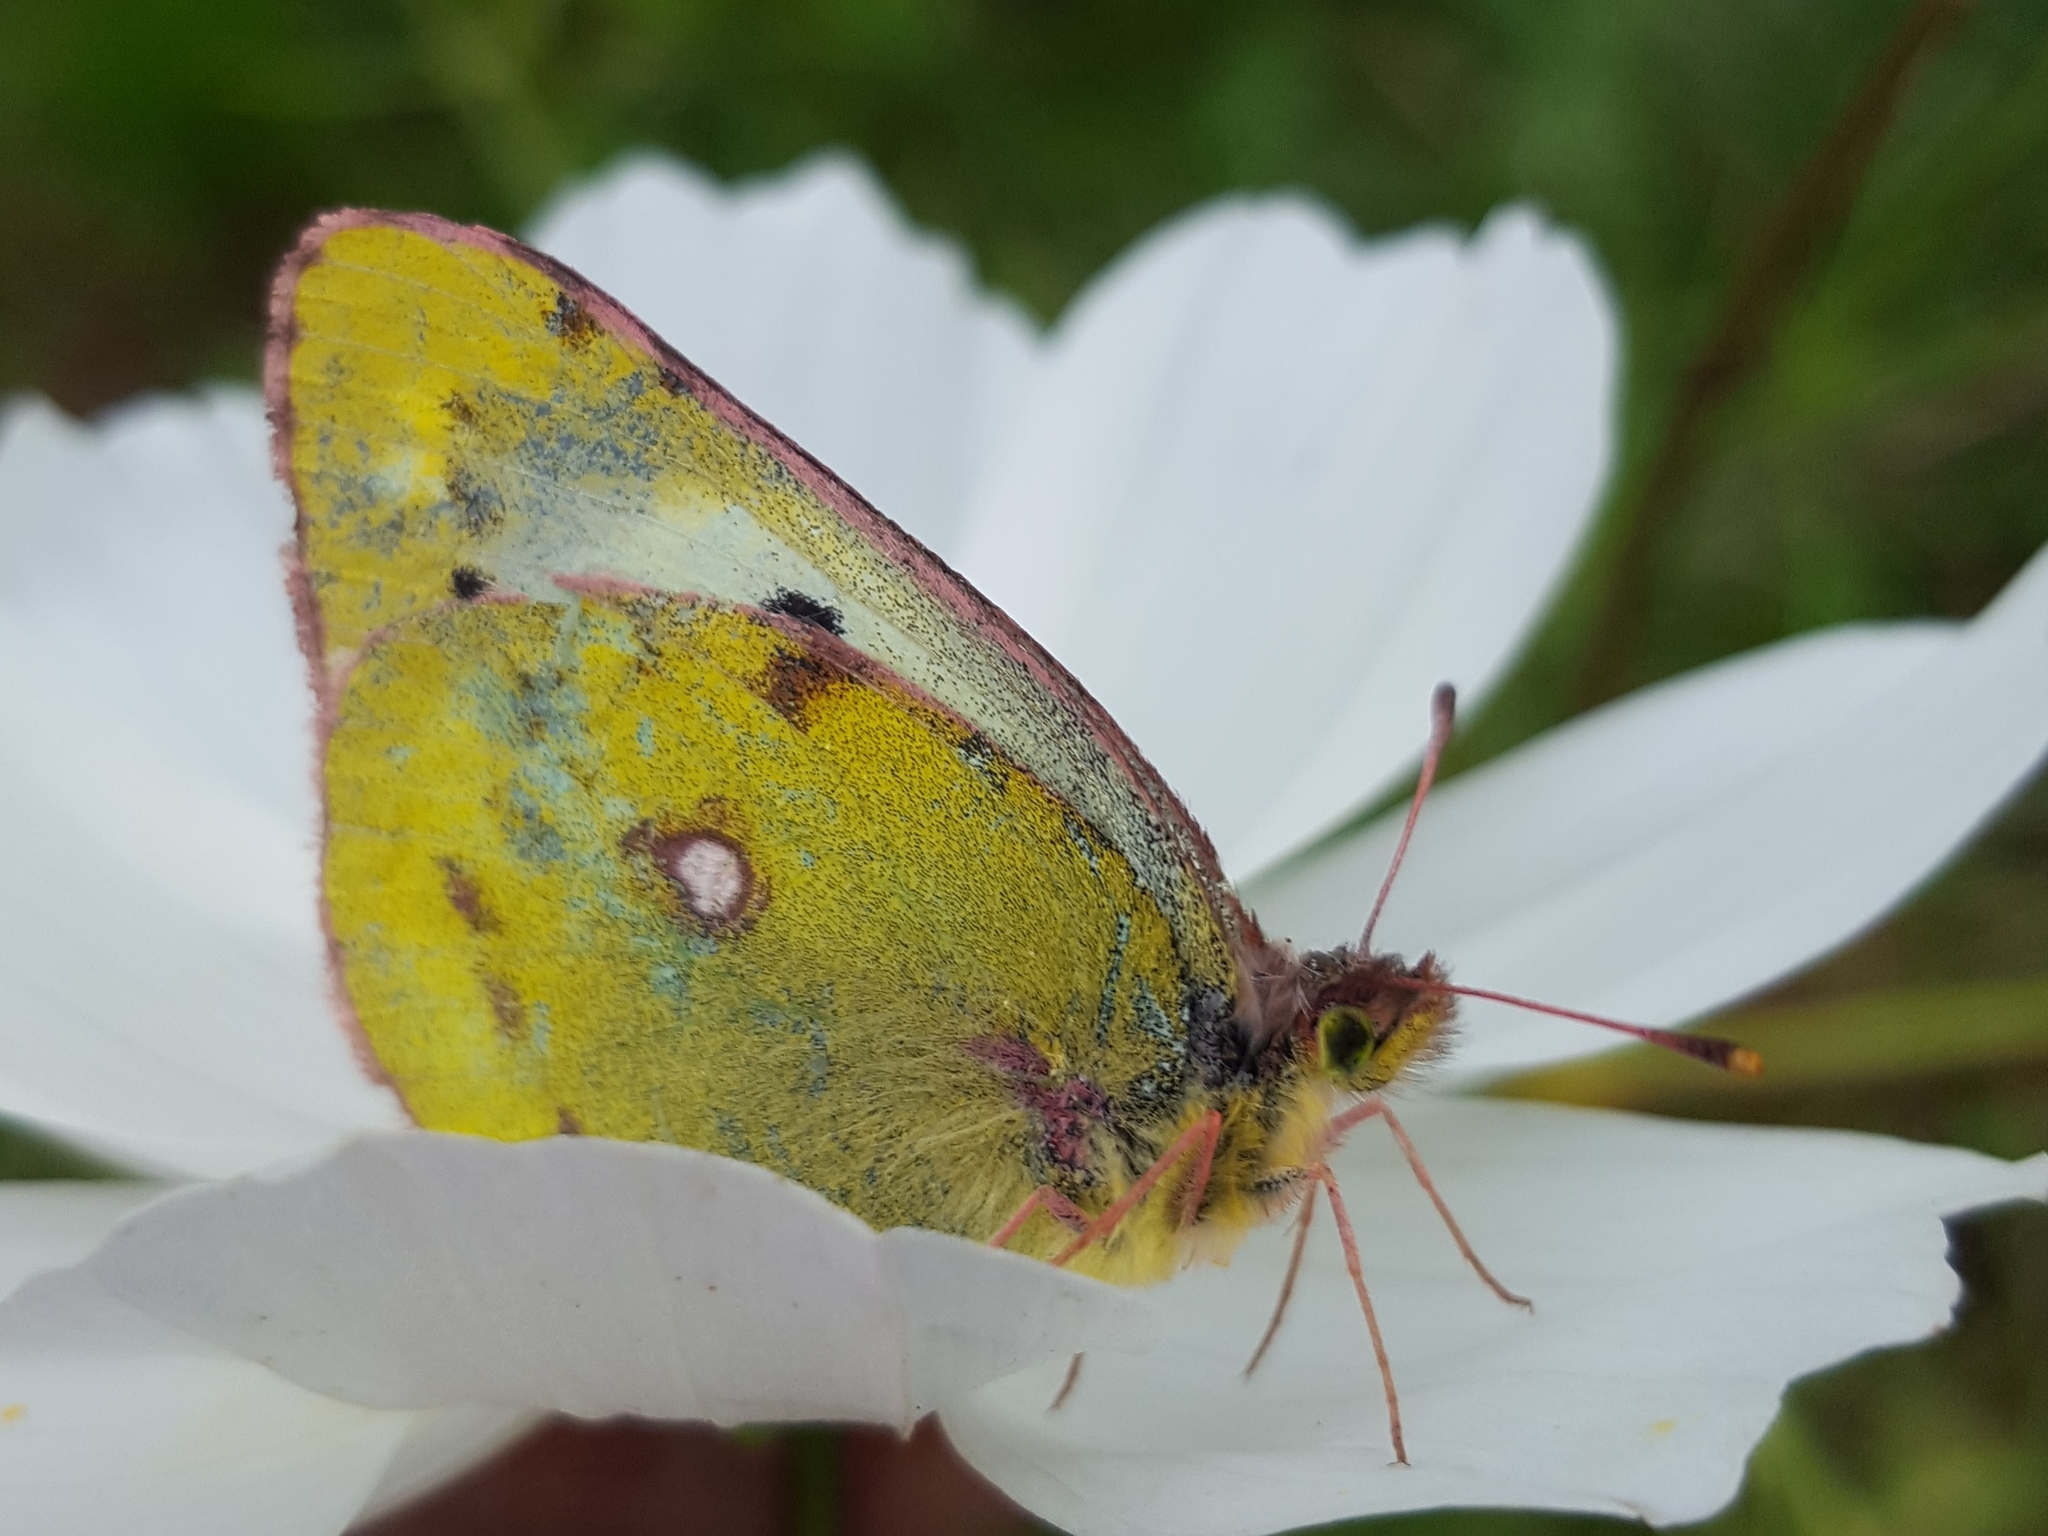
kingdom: Animalia
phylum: Arthropoda
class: Insecta
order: Lepidoptera
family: Pieridae
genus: Colias
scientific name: Colias hyale
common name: Pale clouded yellow
